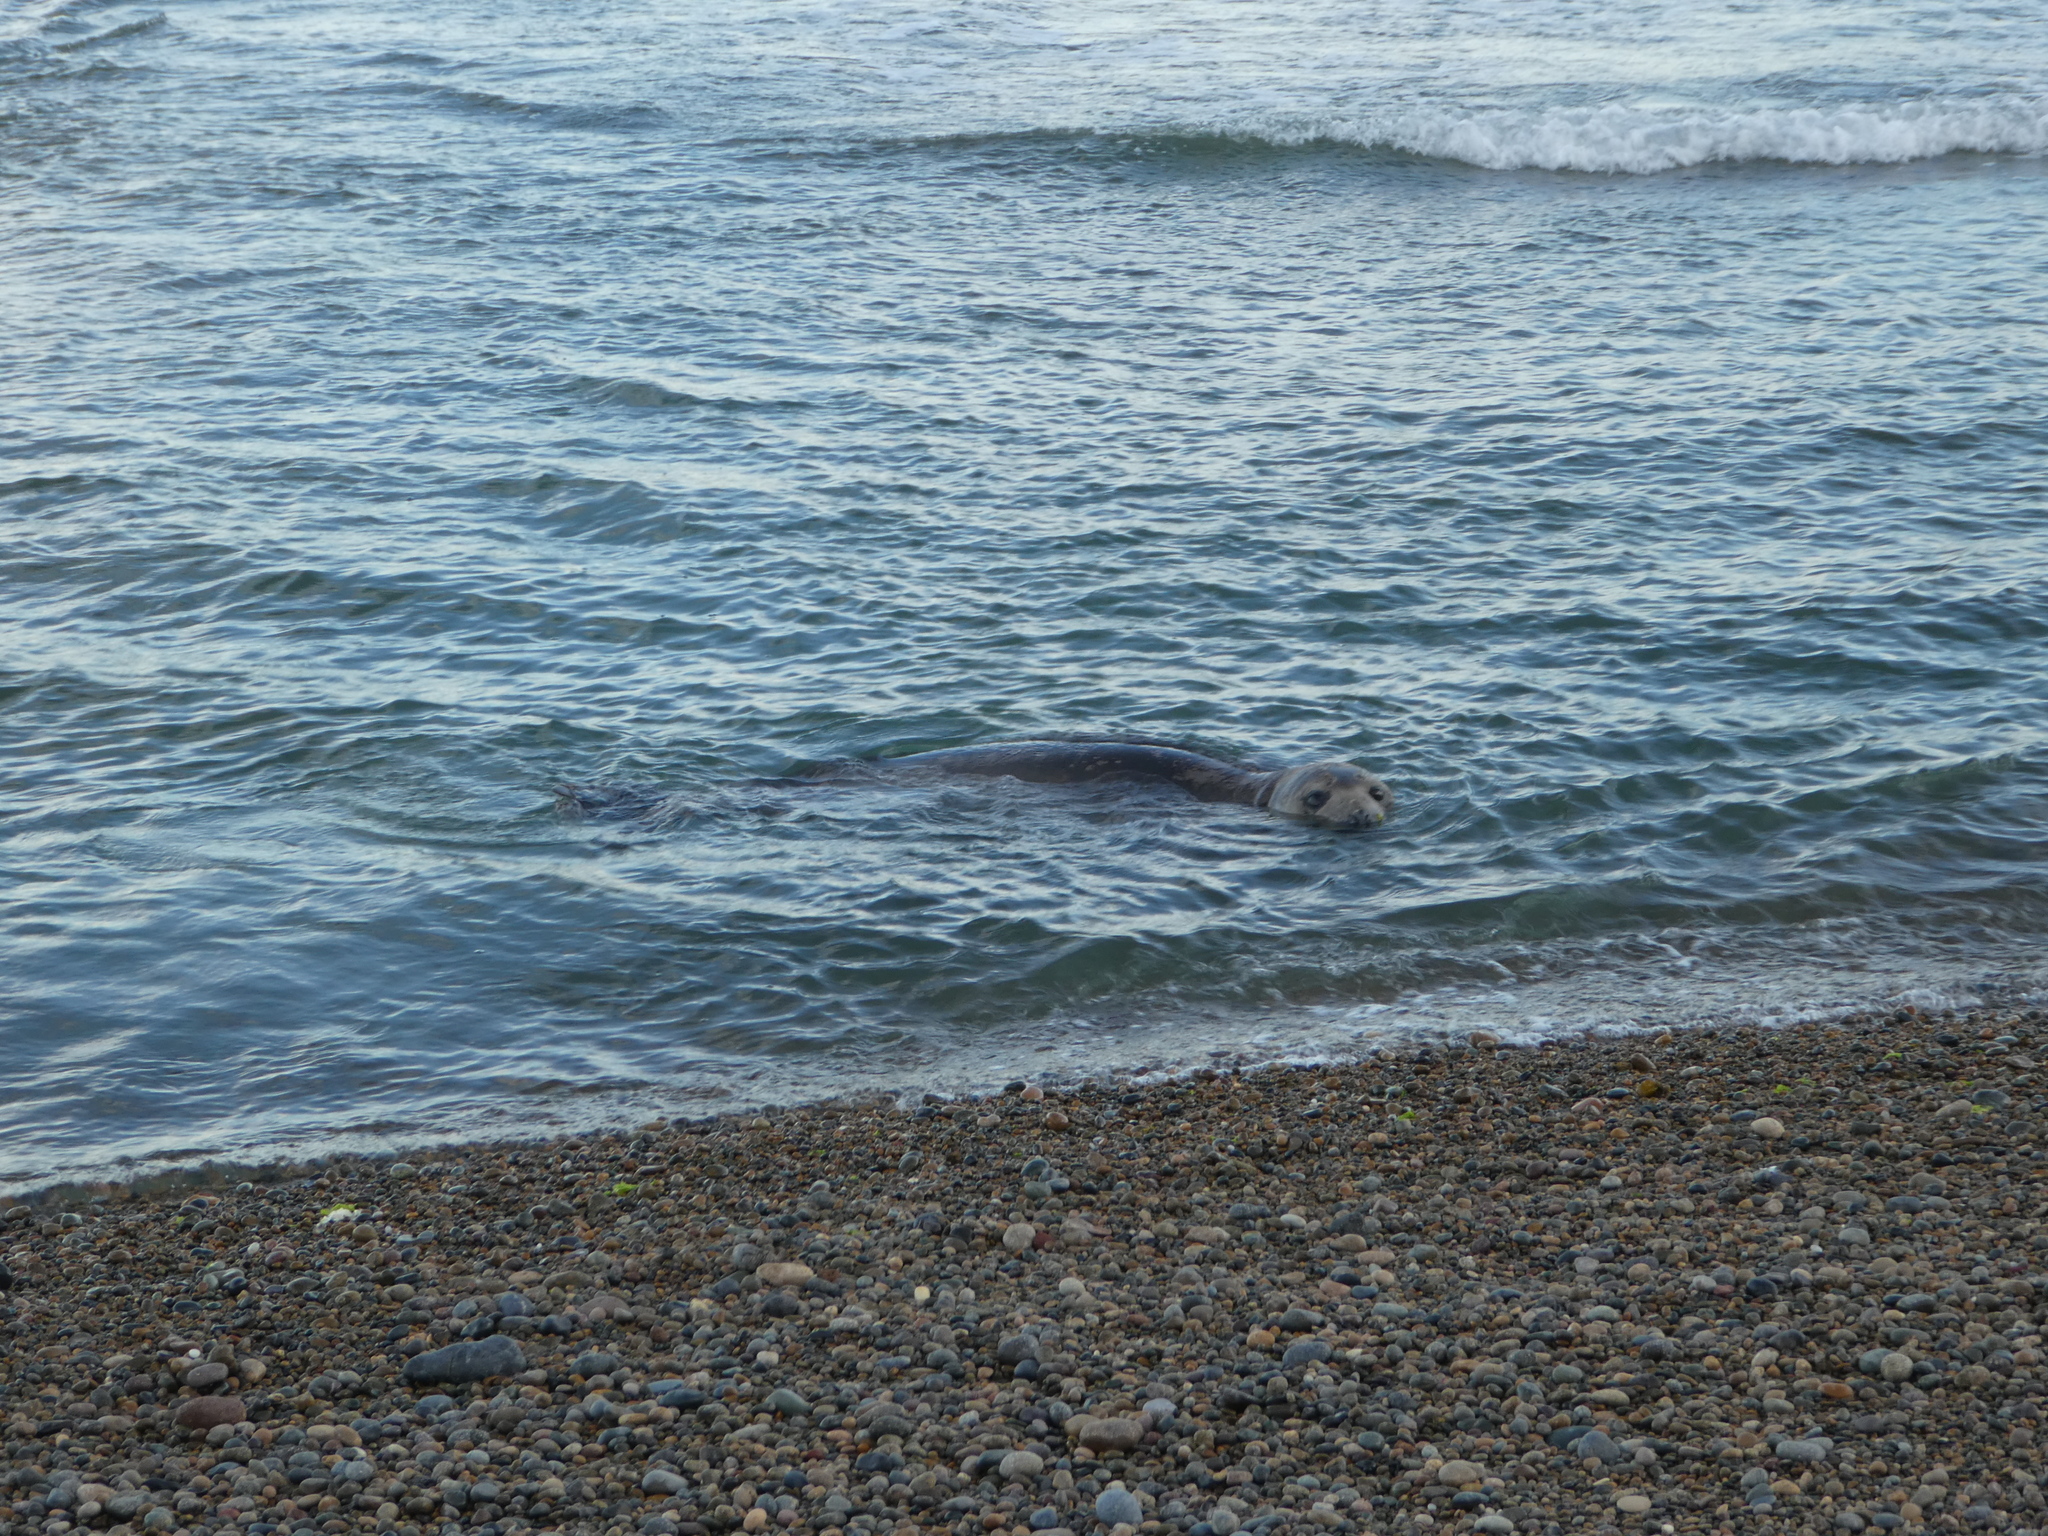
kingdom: Animalia
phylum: Chordata
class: Mammalia
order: Carnivora
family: Phocidae
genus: Mirounga
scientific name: Mirounga leonina
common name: Southern elephant seal
